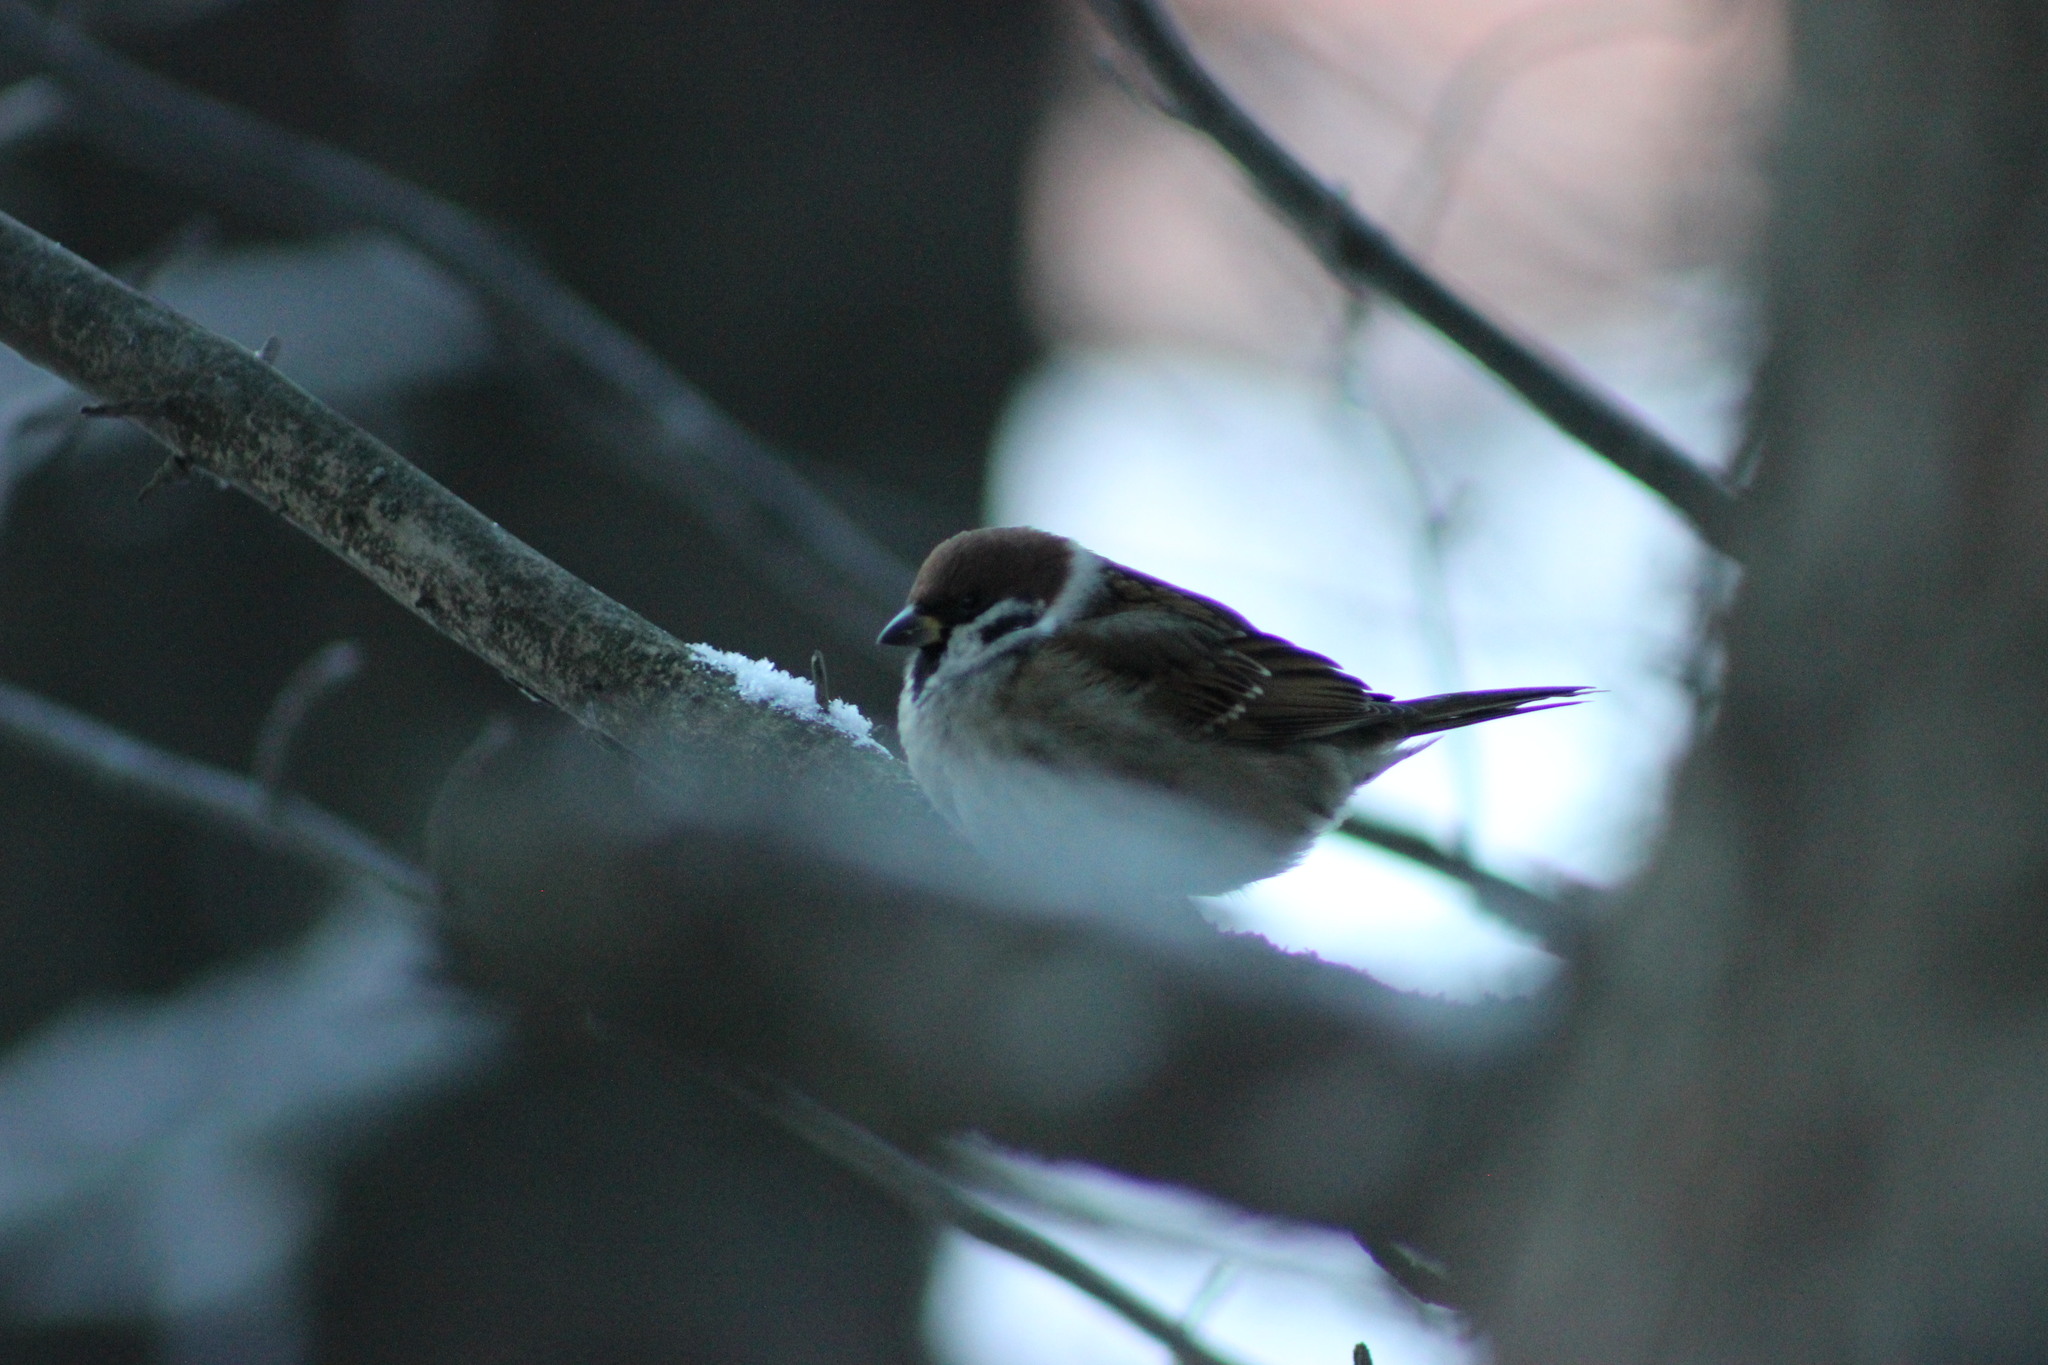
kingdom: Animalia
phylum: Chordata
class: Aves
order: Passeriformes
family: Passeridae
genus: Passer
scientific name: Passer montanus
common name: Eurasian tree sparrow
